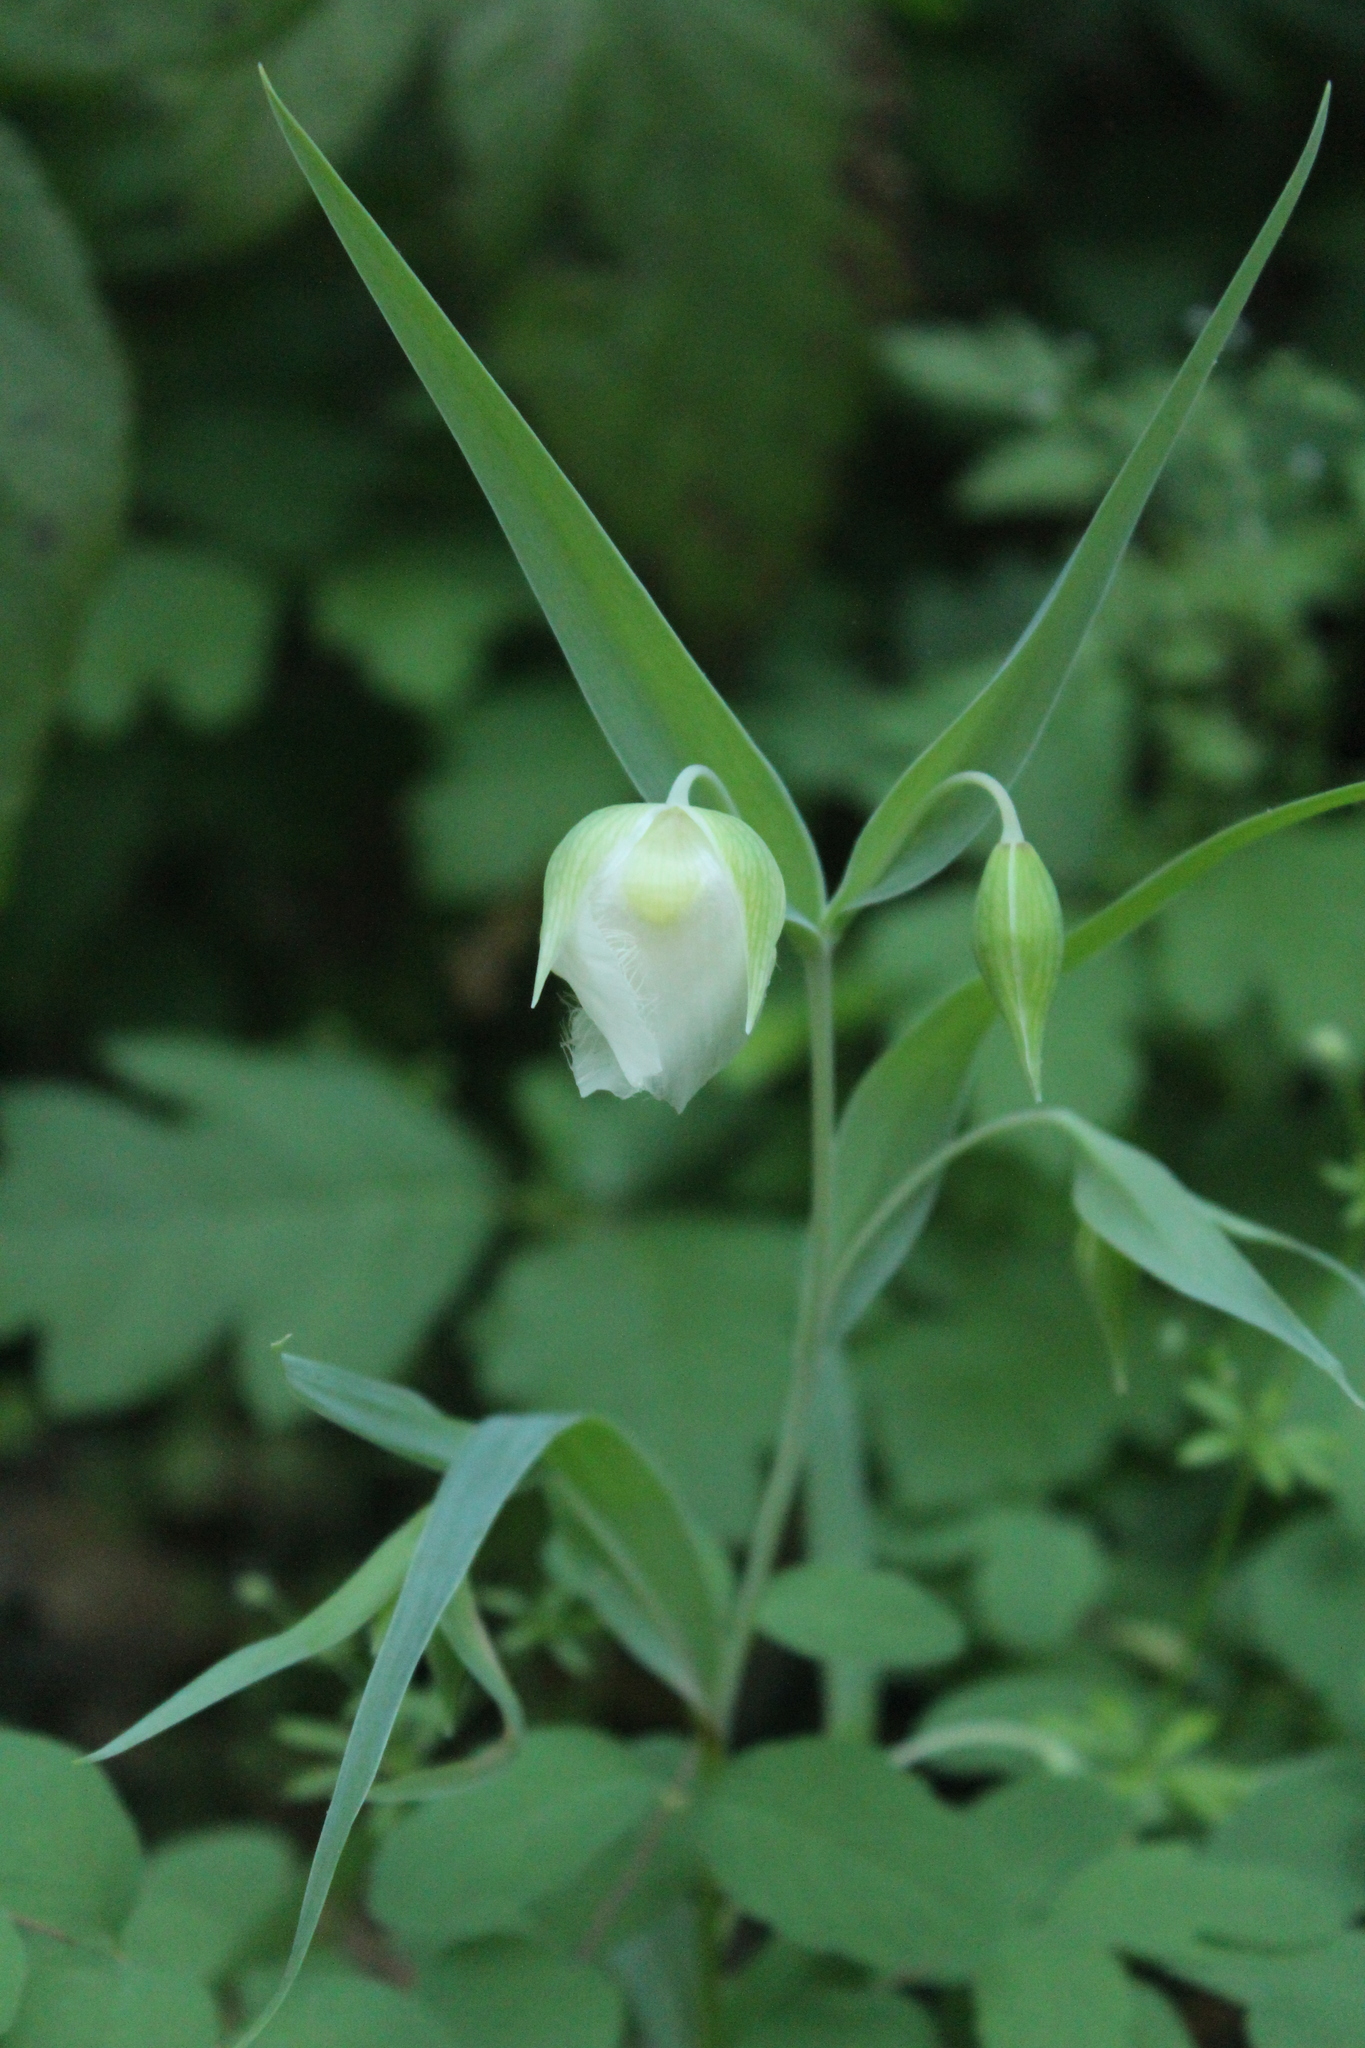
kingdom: Plantae
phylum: Tracheophyta
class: Liliopsida
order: Liliales
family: Liliaceae
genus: Calochortus
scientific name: Calochortus albus
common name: Fairy-lantern
